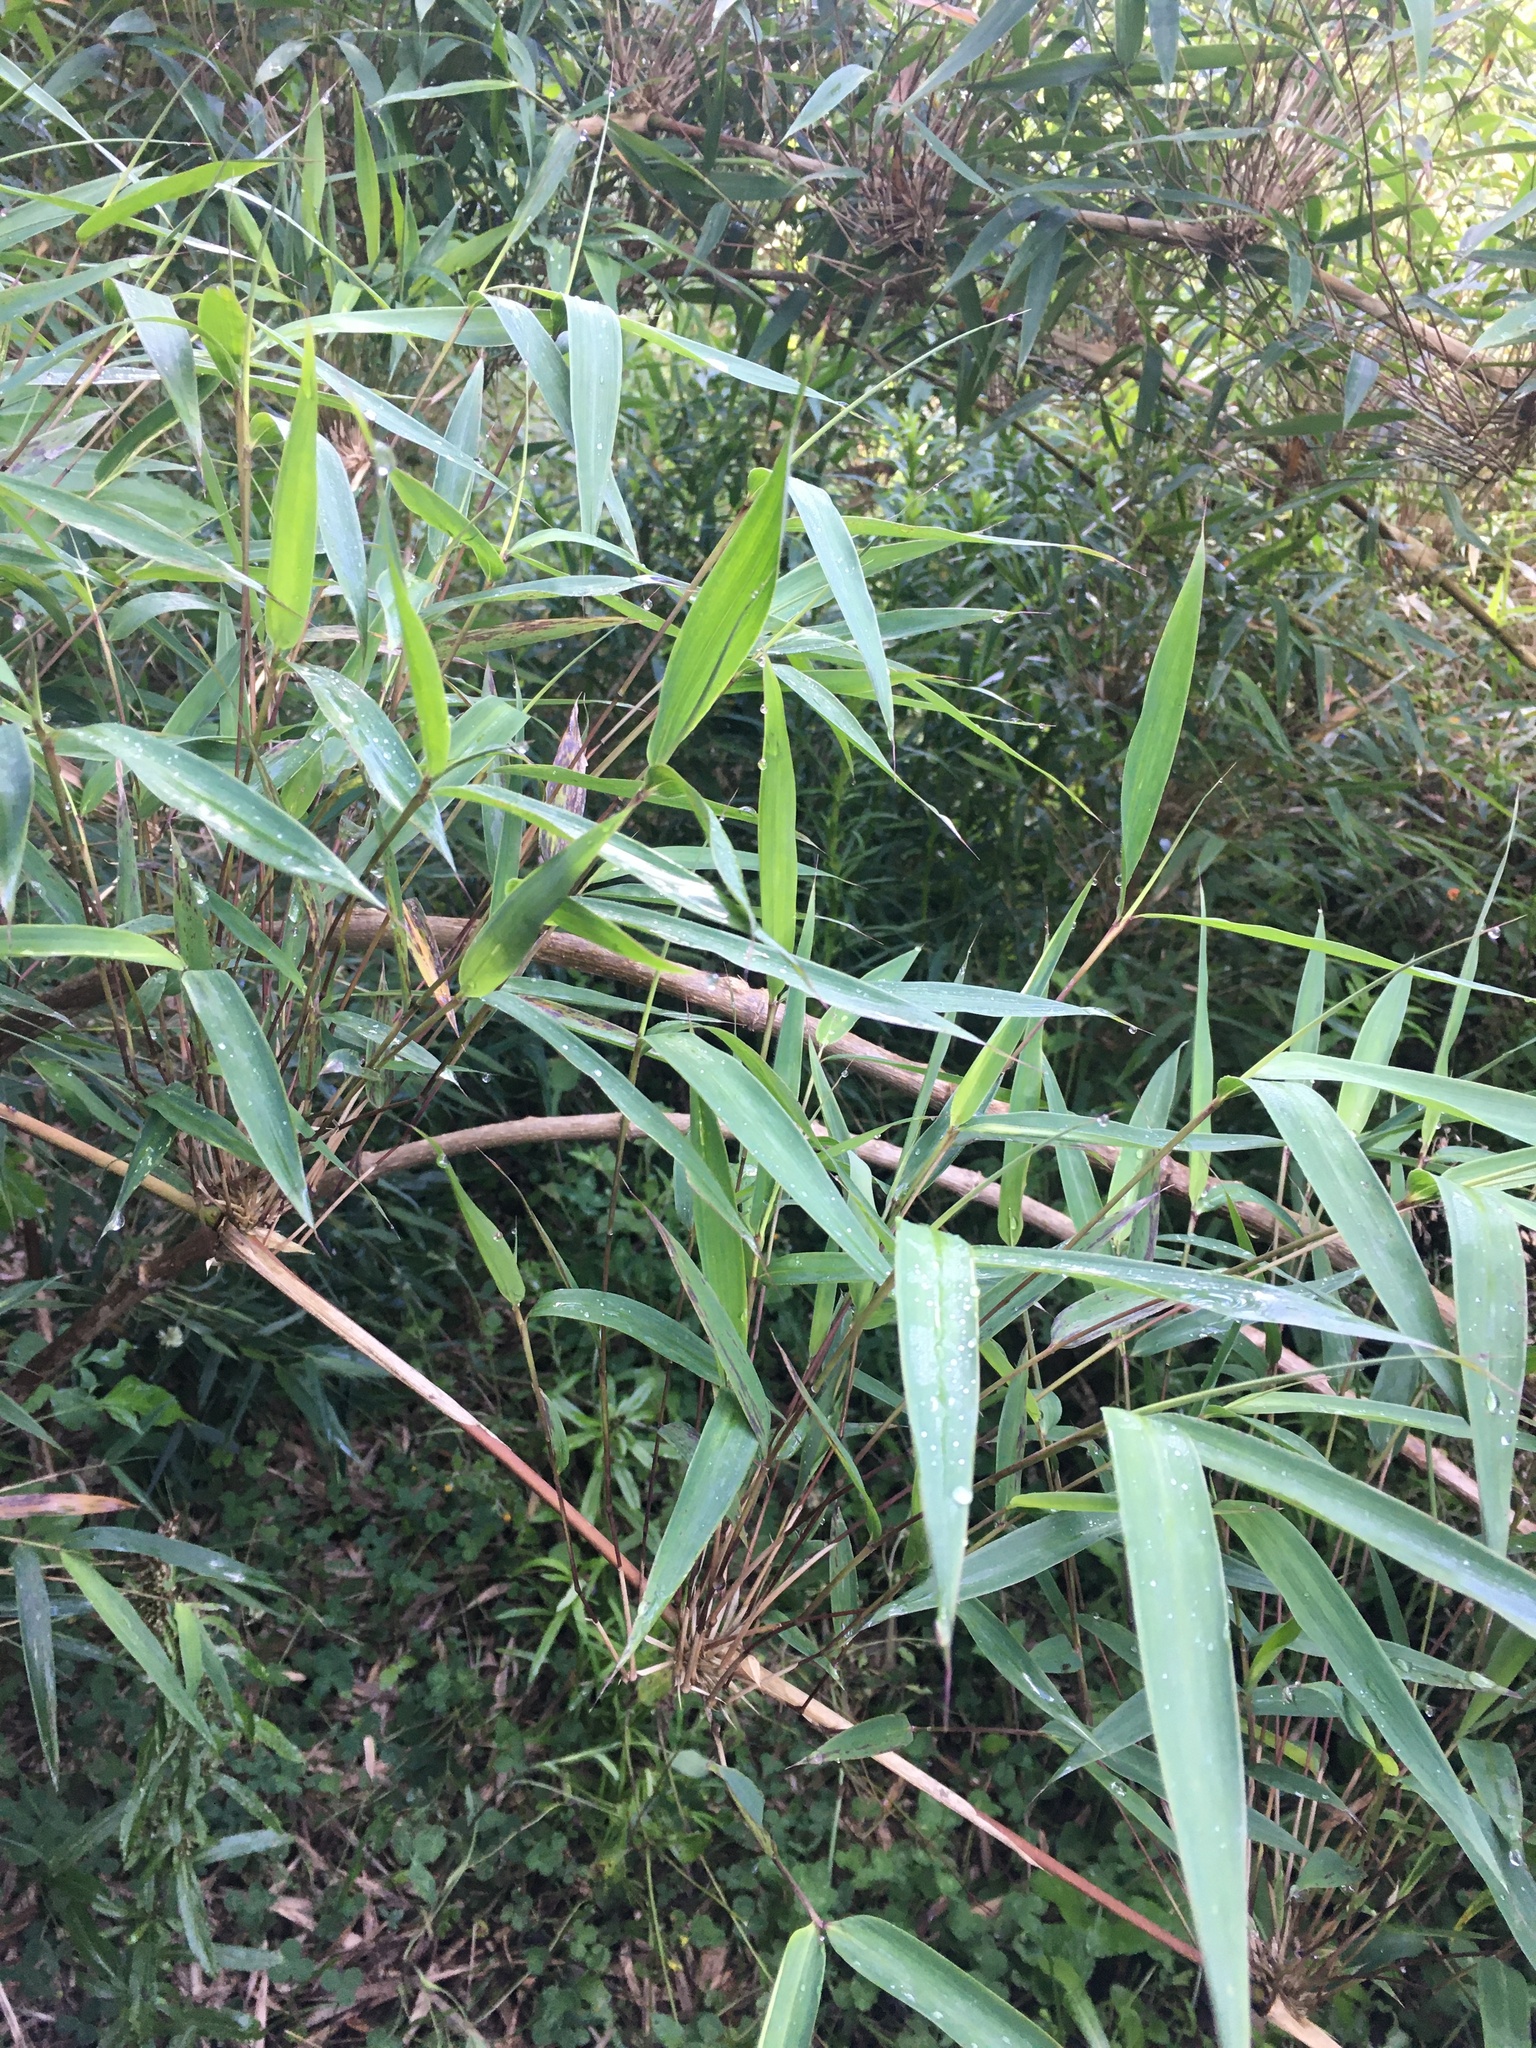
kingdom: Plantae
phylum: Tracheophyta
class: Liliopsida
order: Poales
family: Poaceae
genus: Chusquea
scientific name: Chusquea scandens
